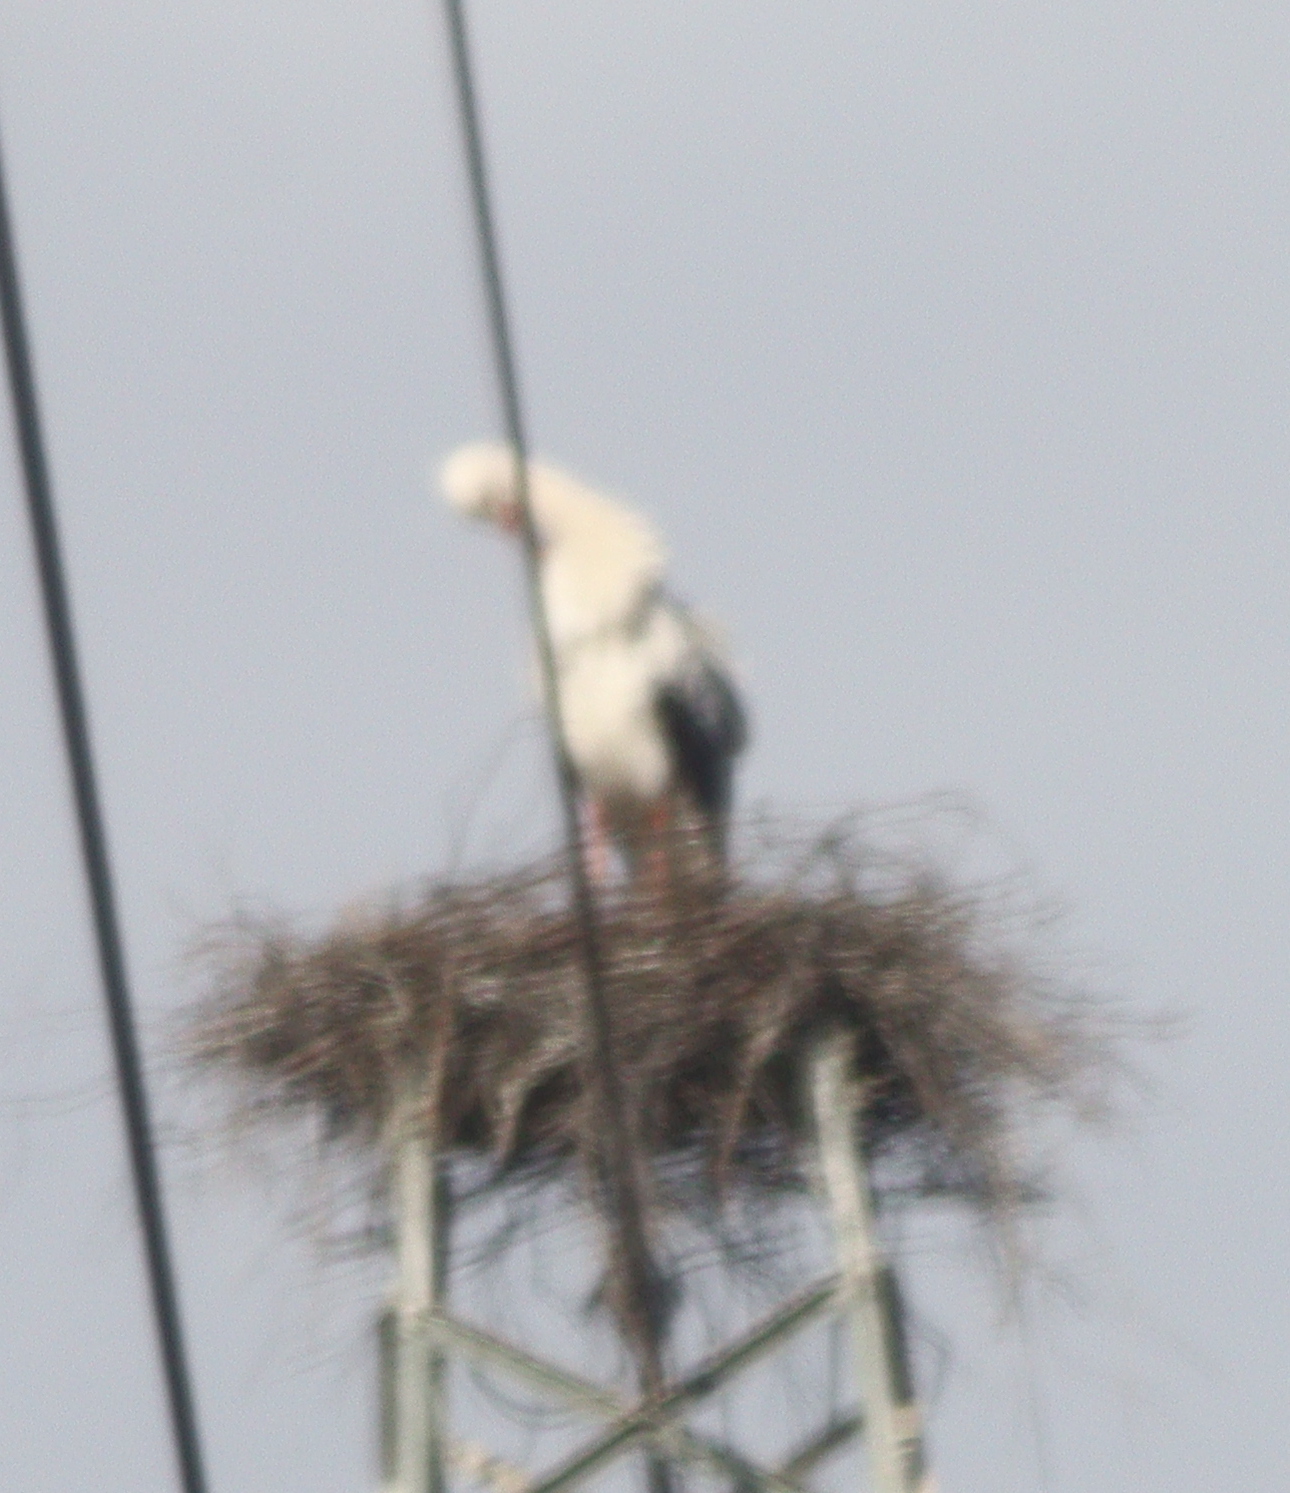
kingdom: Animalia
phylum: Chordata
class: Aves
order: Ciconiiformes
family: Ciconiidae
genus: Ciconia
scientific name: Ciconia ciconia
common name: White stork
